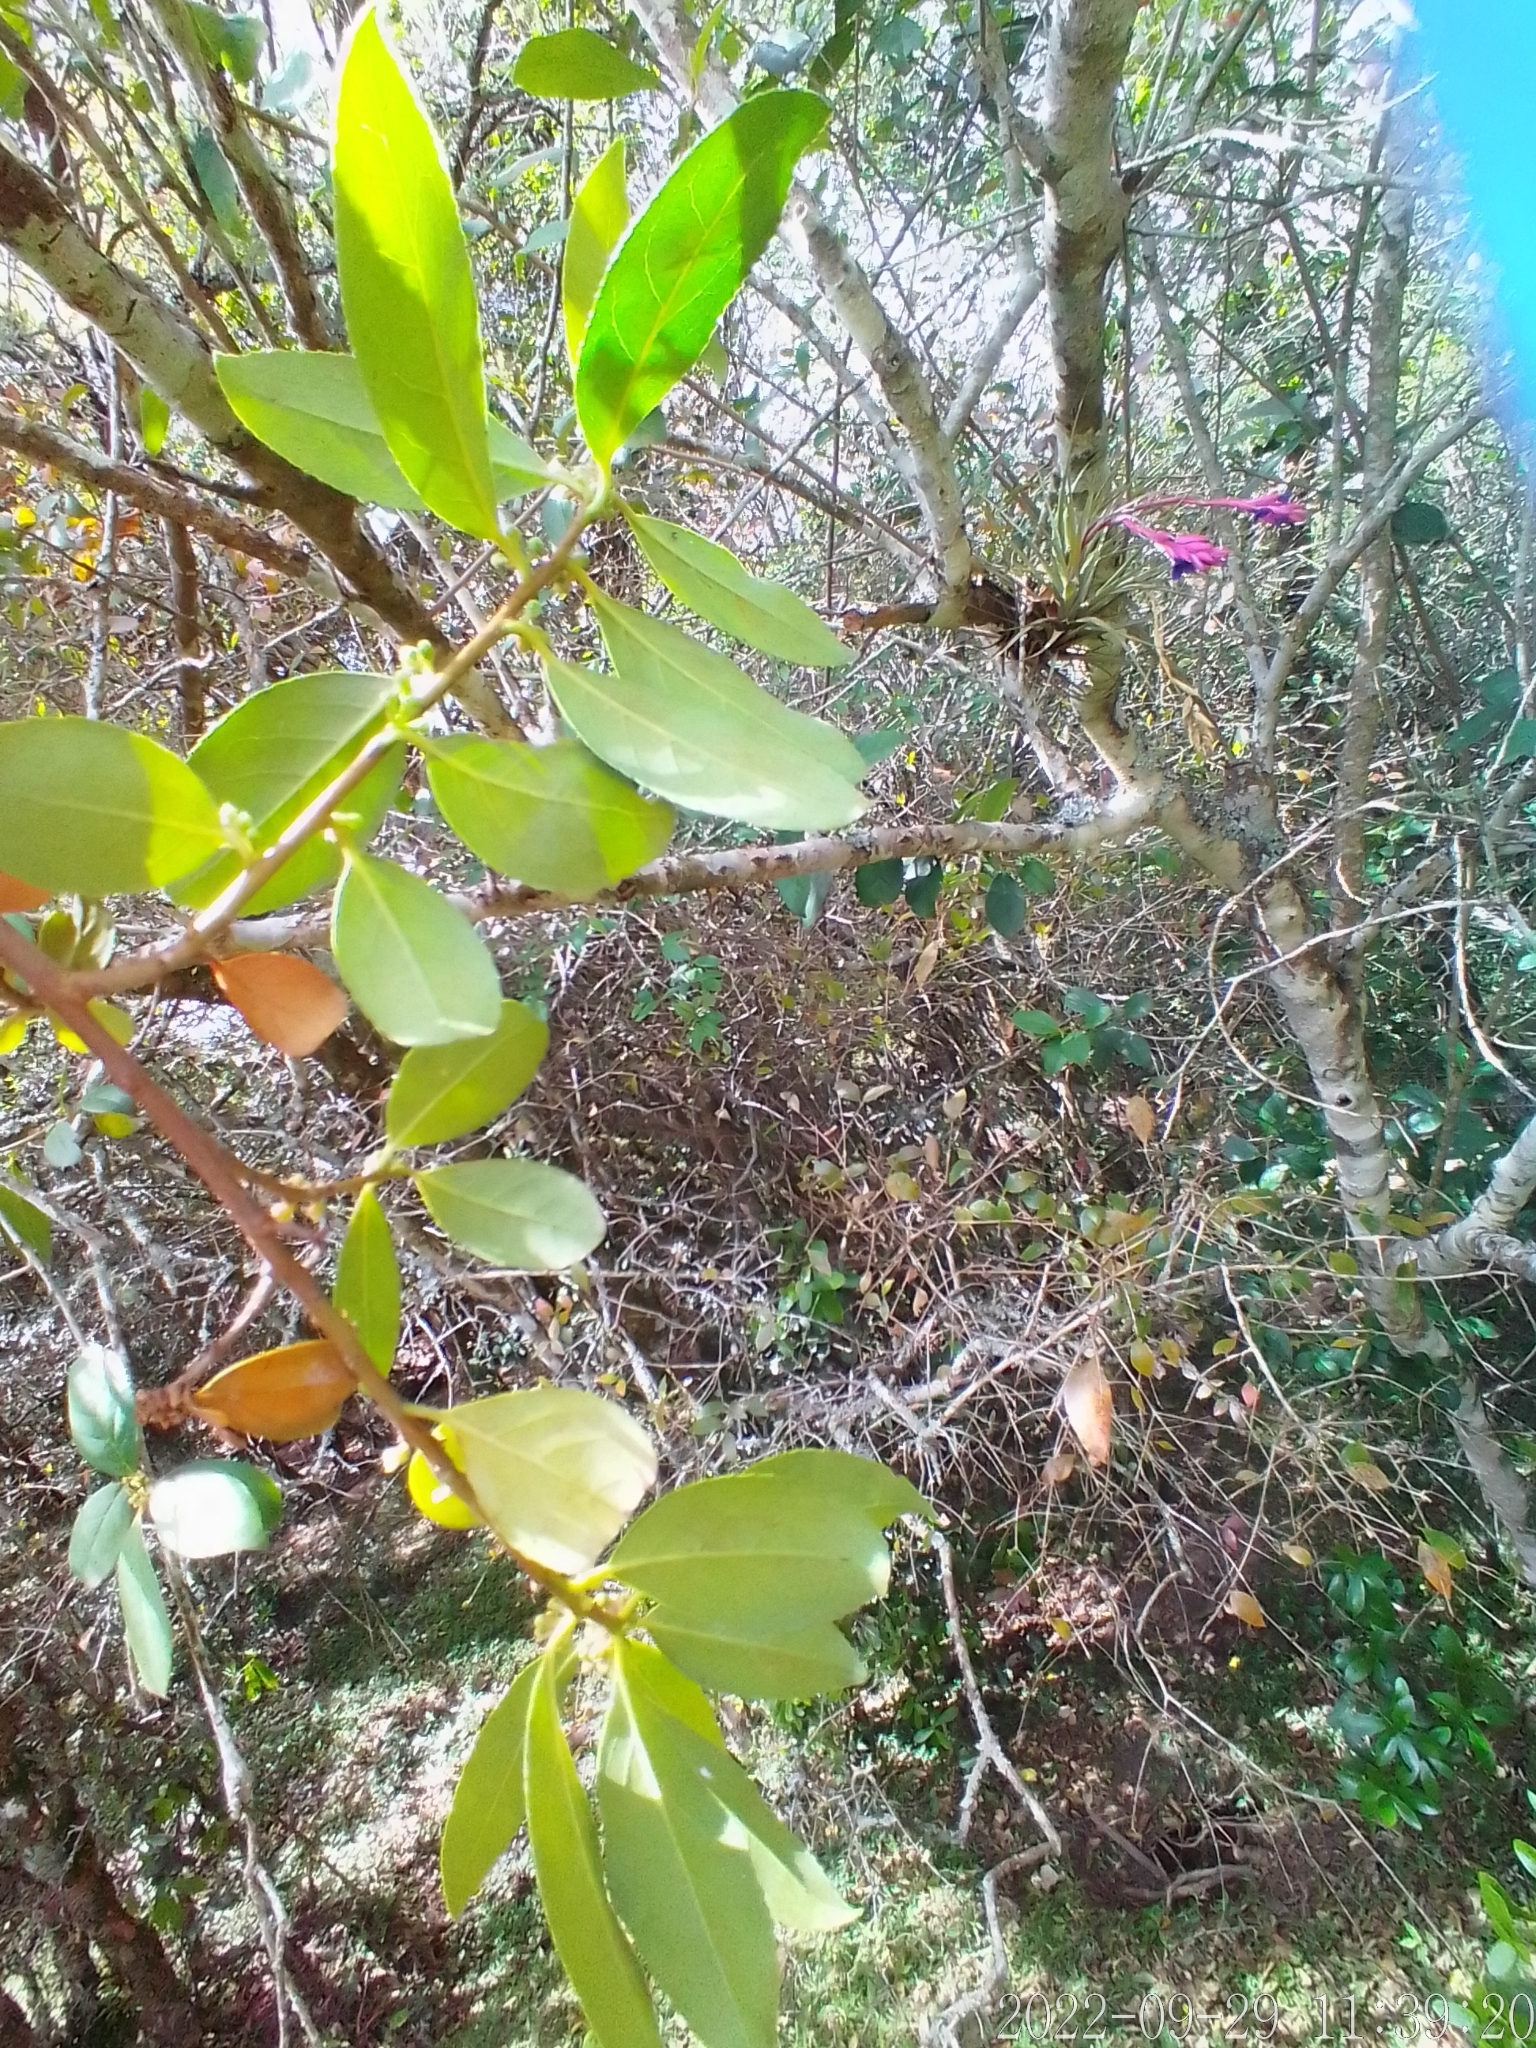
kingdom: Plantae
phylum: Tracheophyta
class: Magnoliopsida
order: Ericales
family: Symplocaceae
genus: Symplocos
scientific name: Symplocos uniflora
